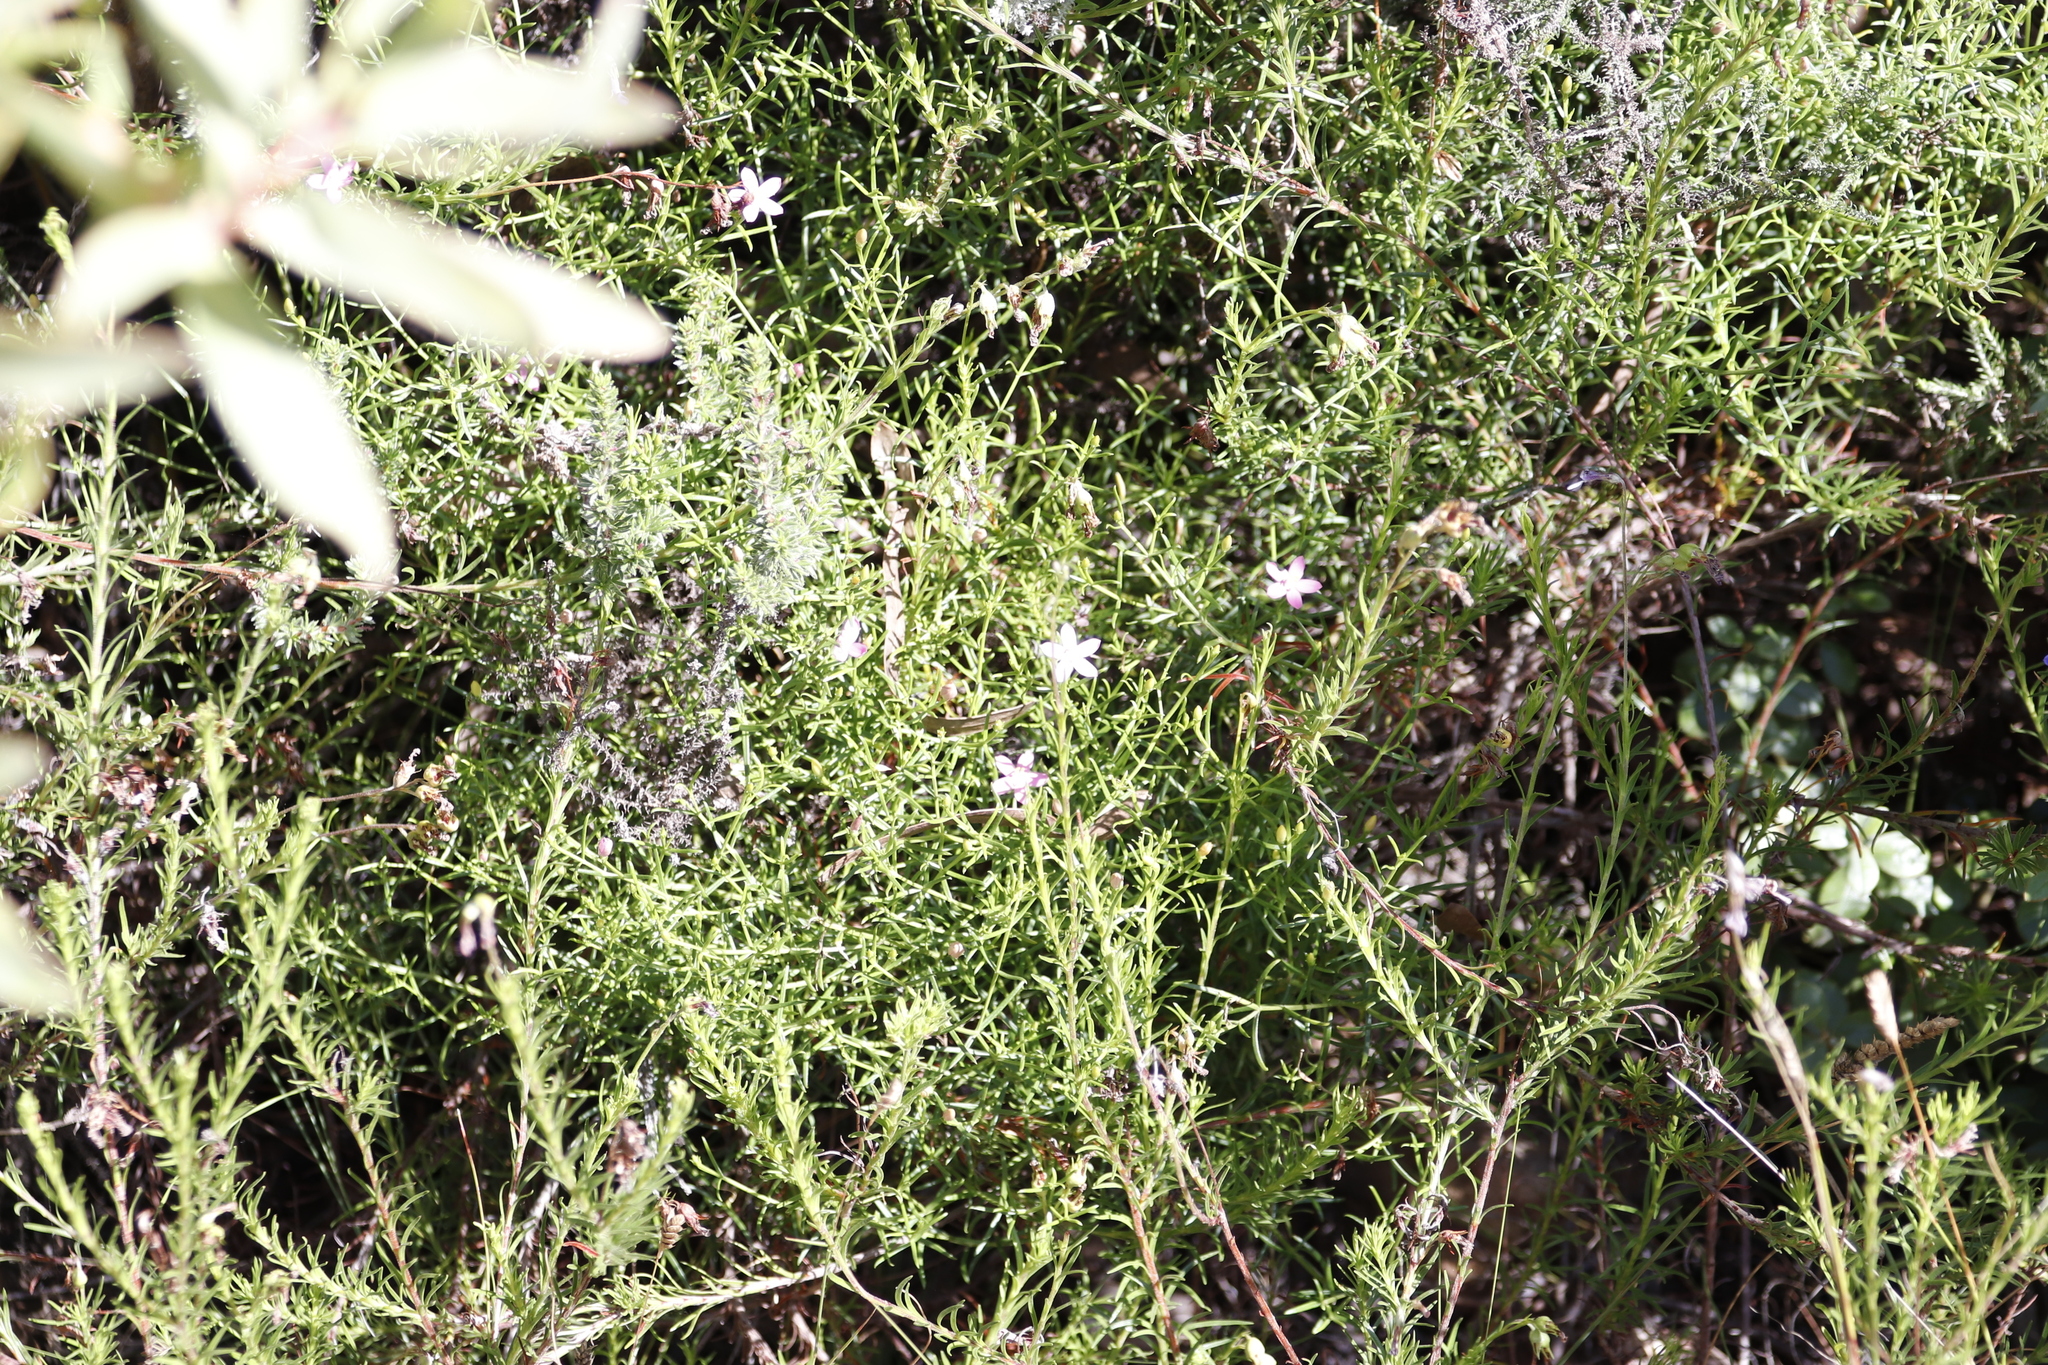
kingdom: Plantae
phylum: Tracheophyta
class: Magnoliopsida
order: Gentianales
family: Gentianaceae
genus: Chironia
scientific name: Chironia baccifera
